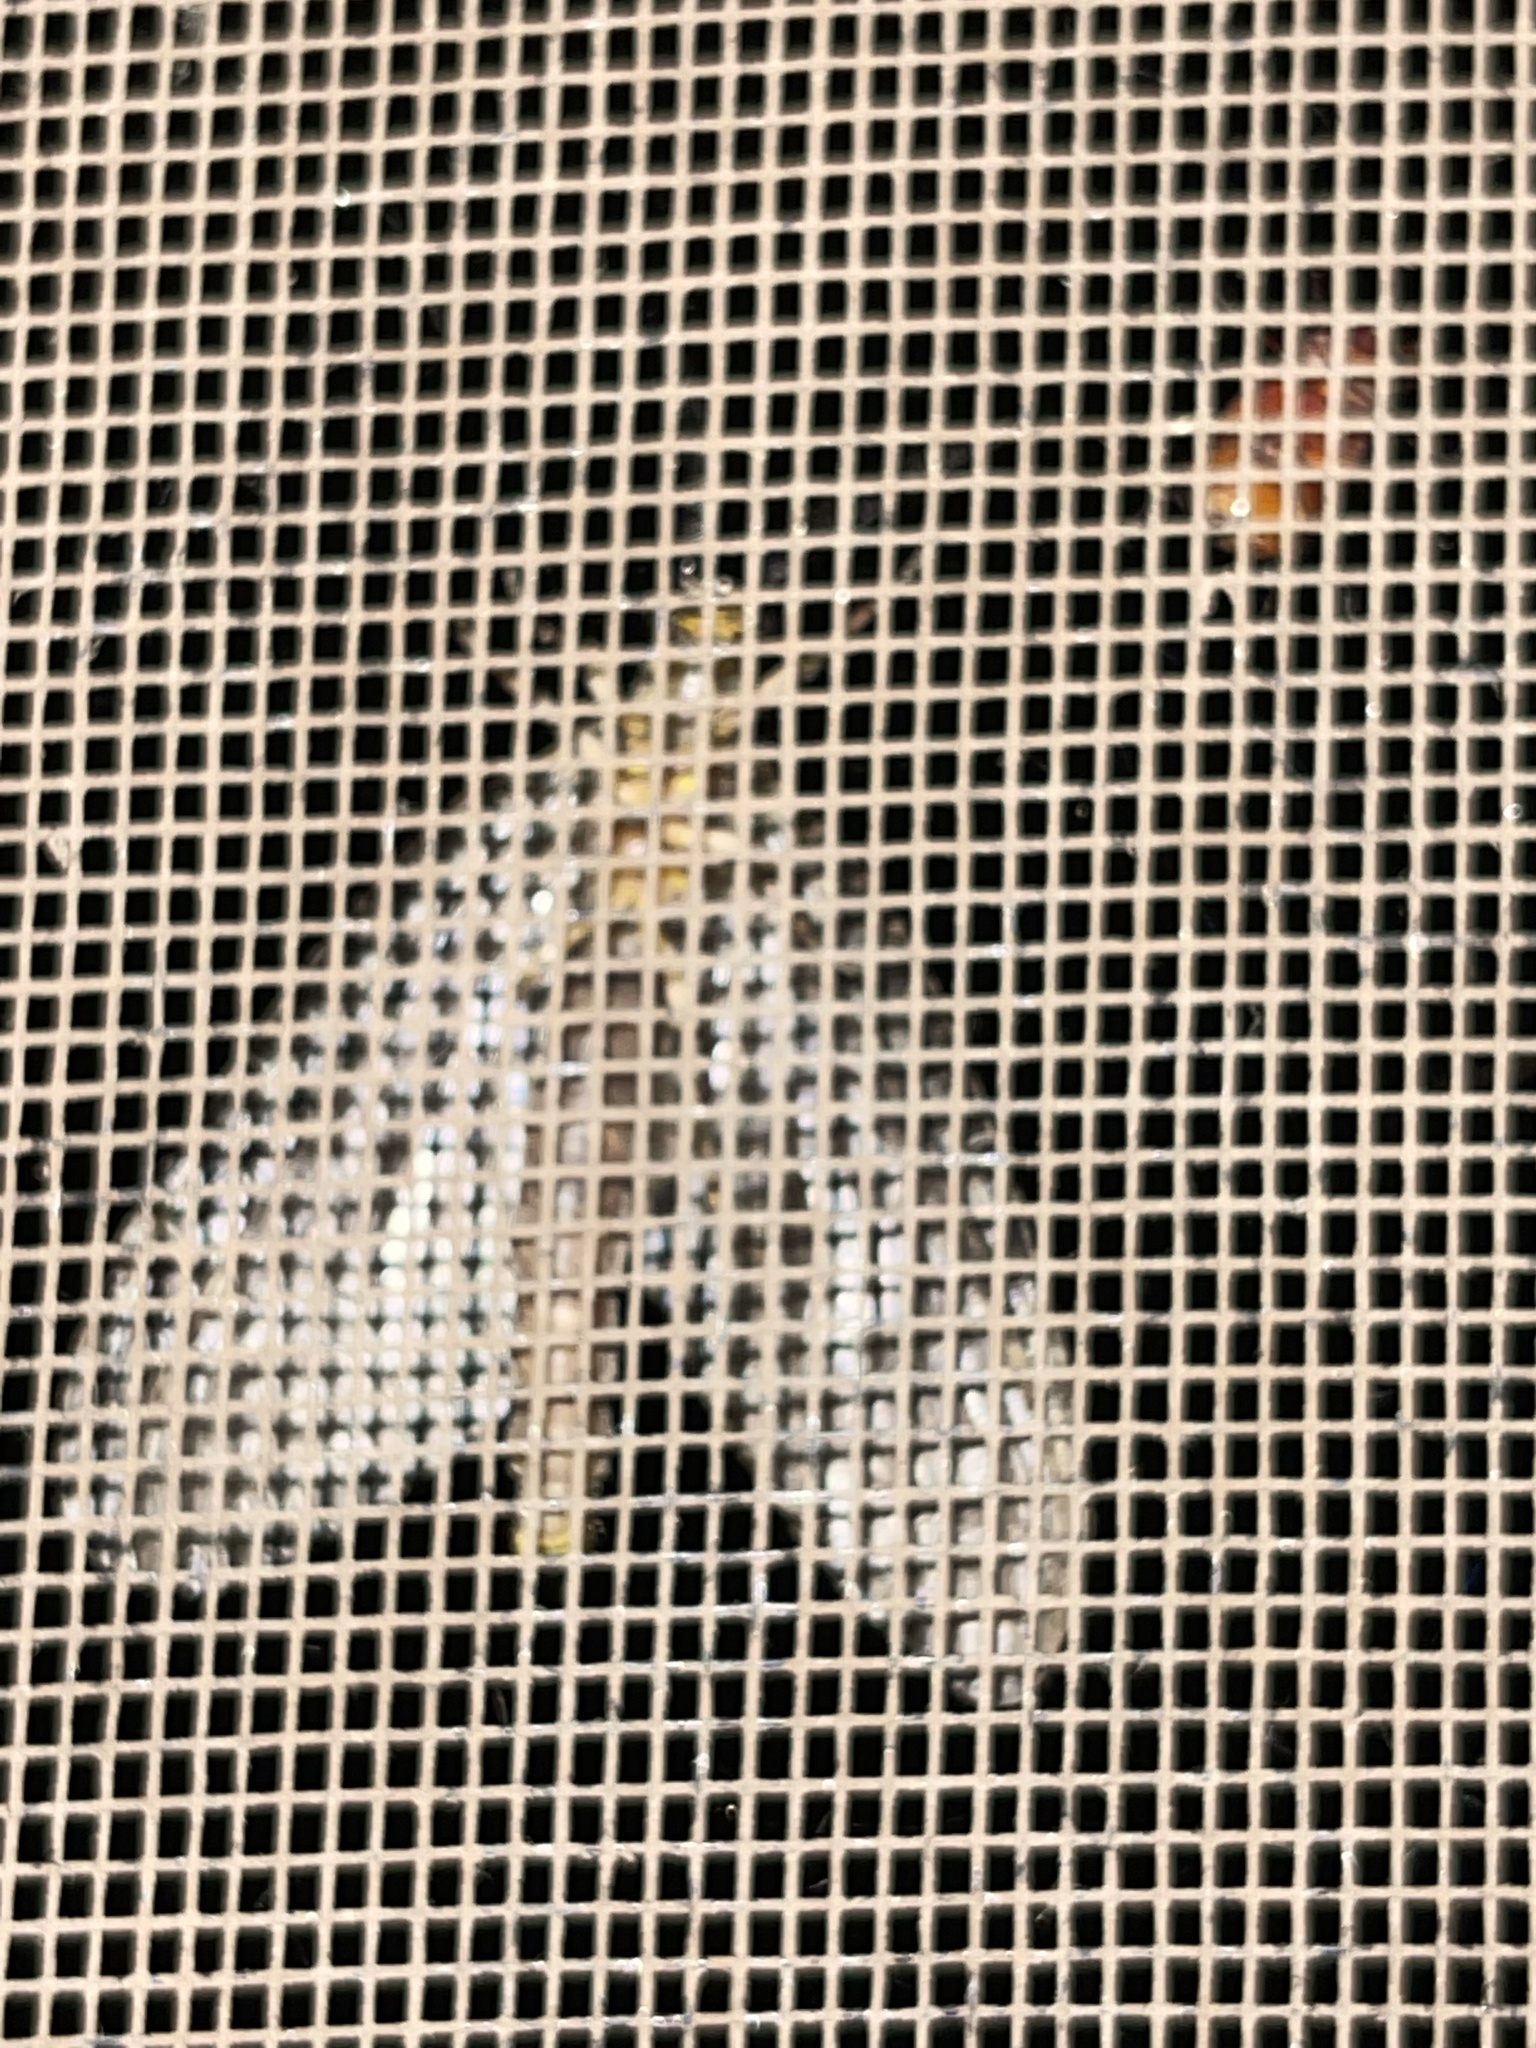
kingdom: Animalia
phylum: Arthropoda
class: Insecta
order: Megaloptera
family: Corydalidae
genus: Chauliodes
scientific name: Chauliodes
